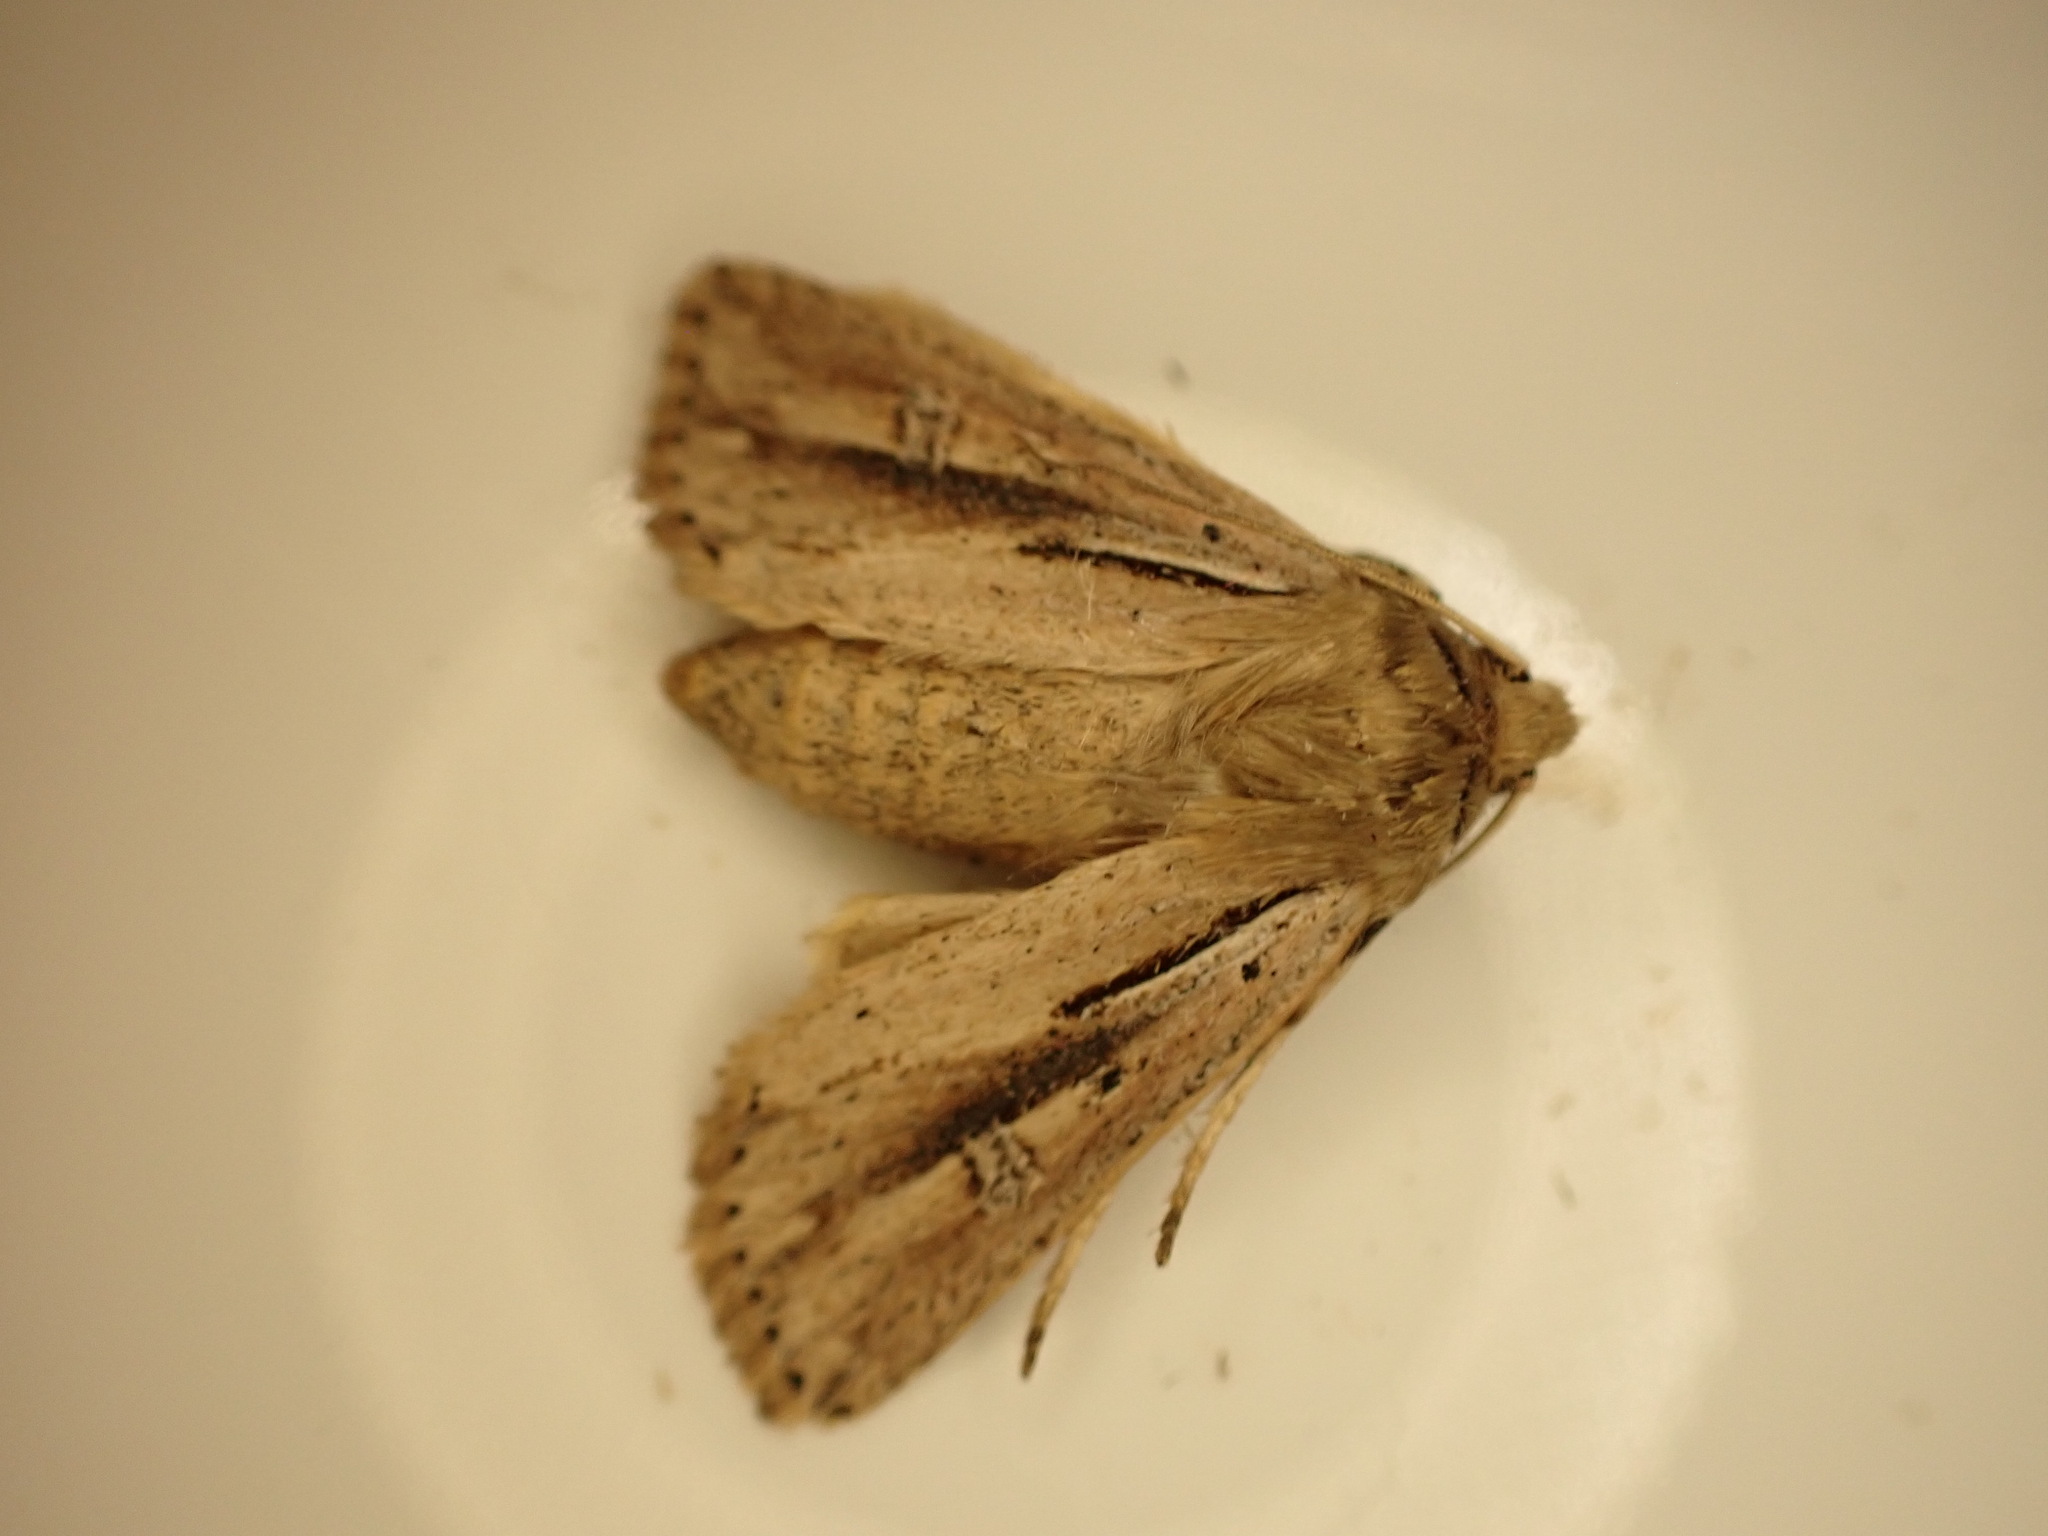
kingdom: Animalia
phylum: Arthropoda
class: Insecta
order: Lepidoptera
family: Noctuidae
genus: Ichneutica
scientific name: Ichneutica propria
